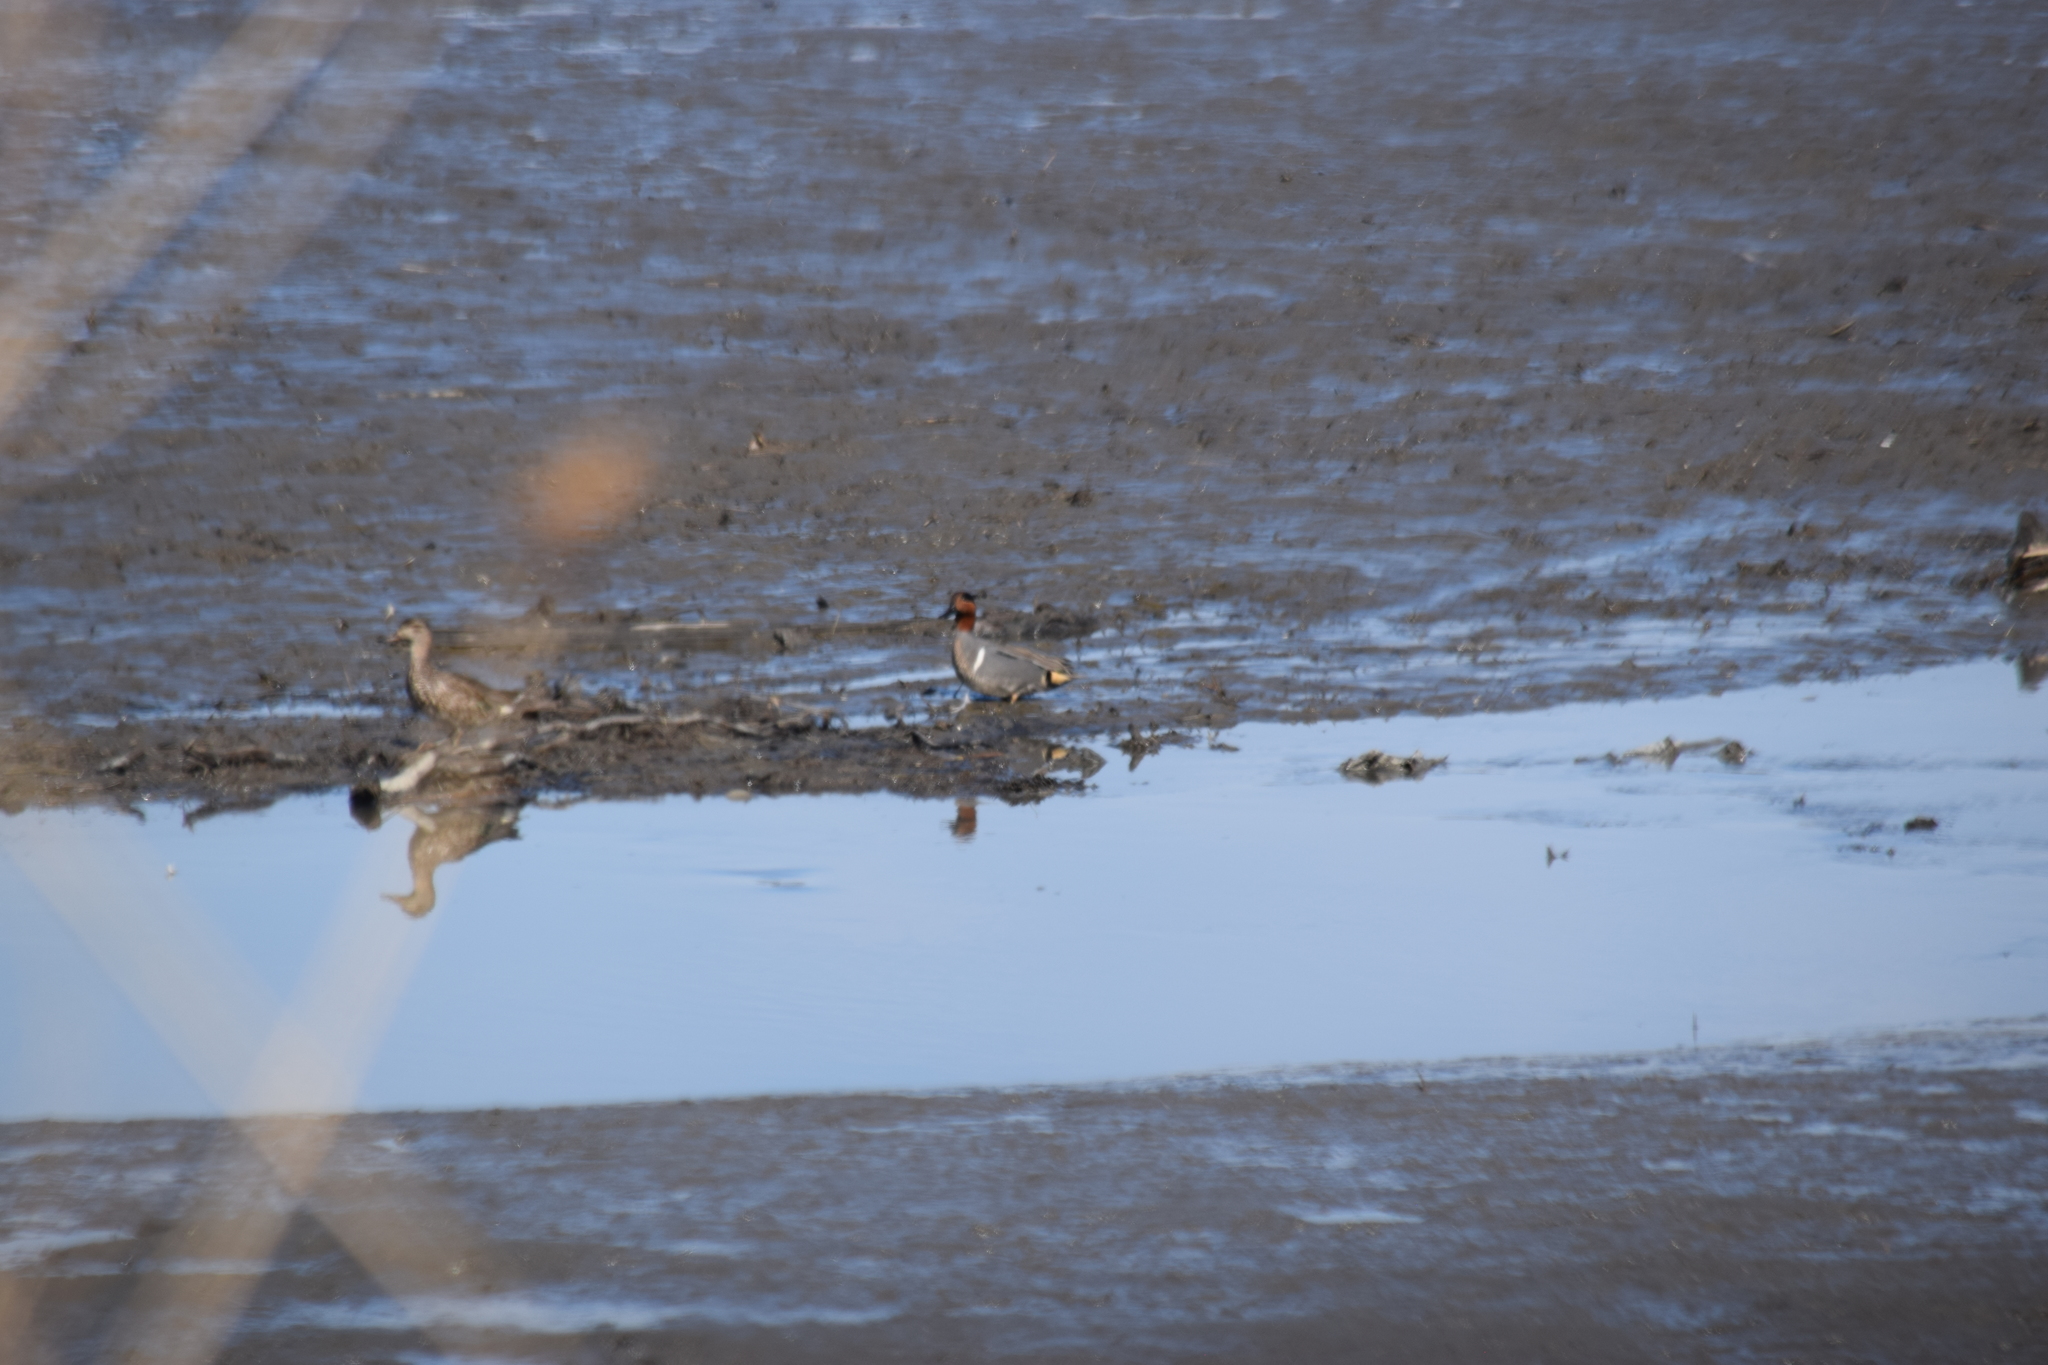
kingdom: Animalia
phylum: Chordata
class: Aves
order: Anseriformes
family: Anatidae
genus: Anas
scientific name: Anas crecca
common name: Eurasian teal
